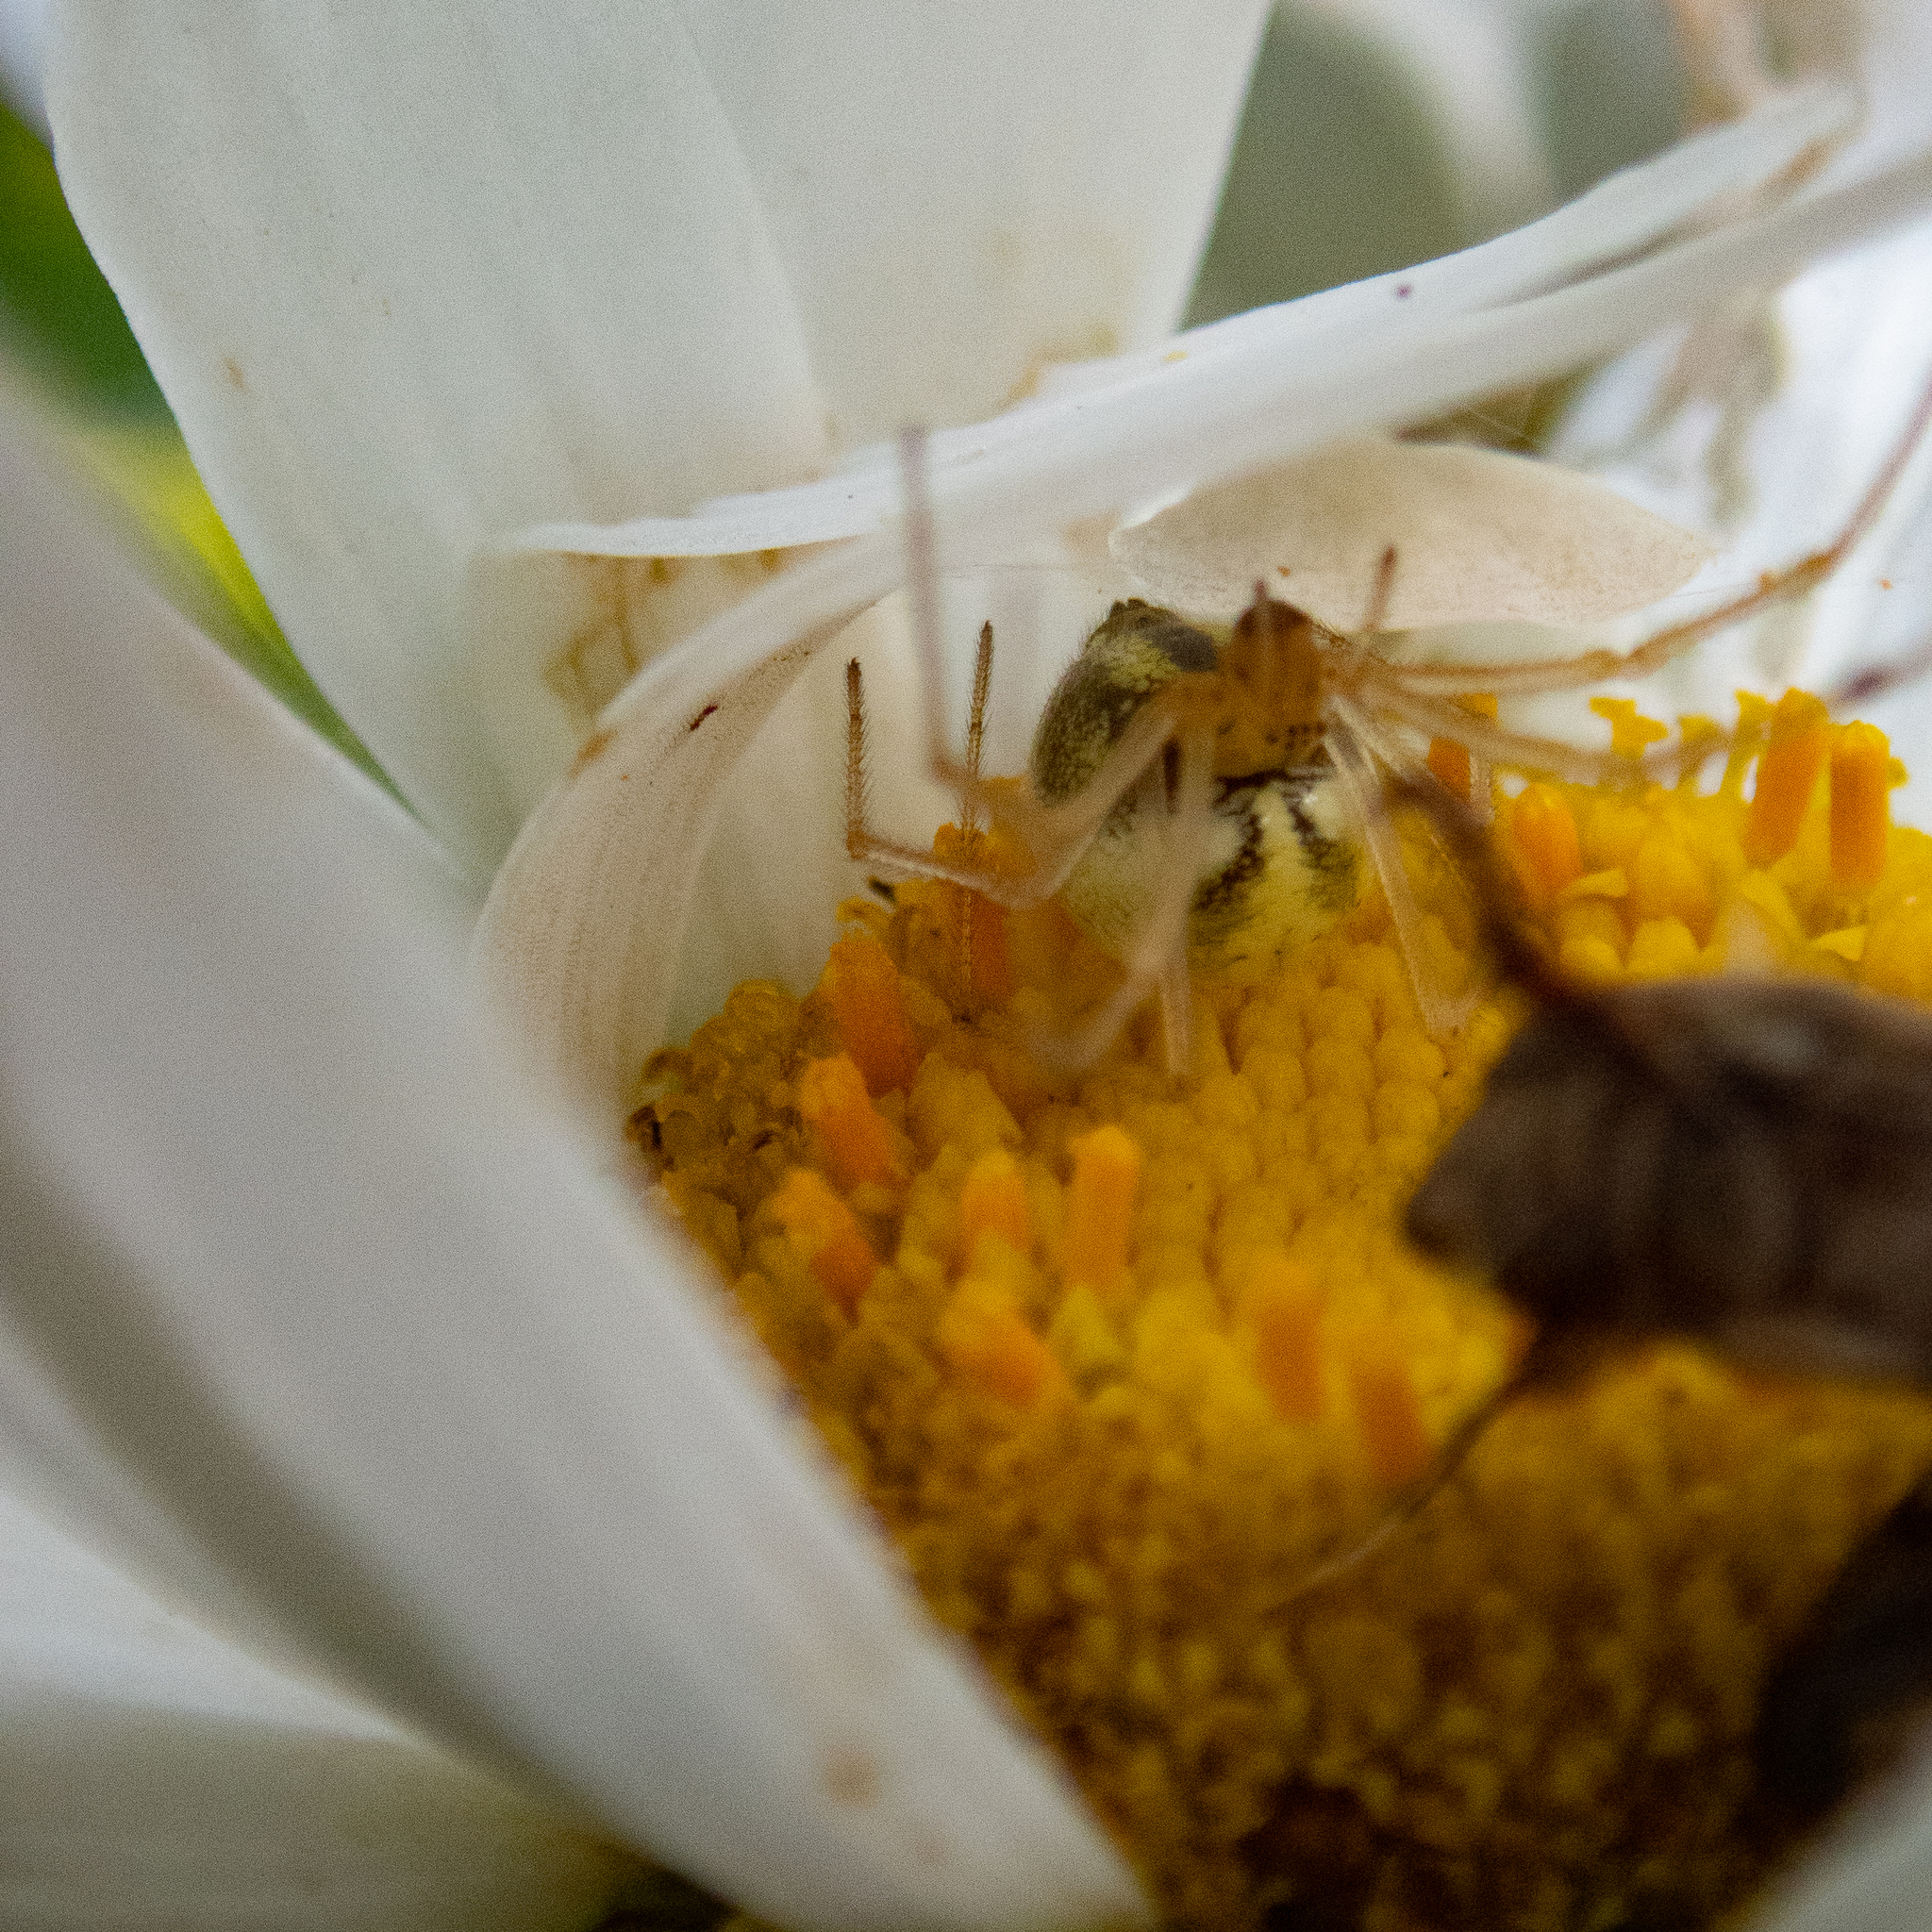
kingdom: Animalia
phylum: Arthropoda
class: Arachnida
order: Araneae
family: Theridiidae
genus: Enoplognatha
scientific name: Enoplognatha ovata
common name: Common candy-striped spider
